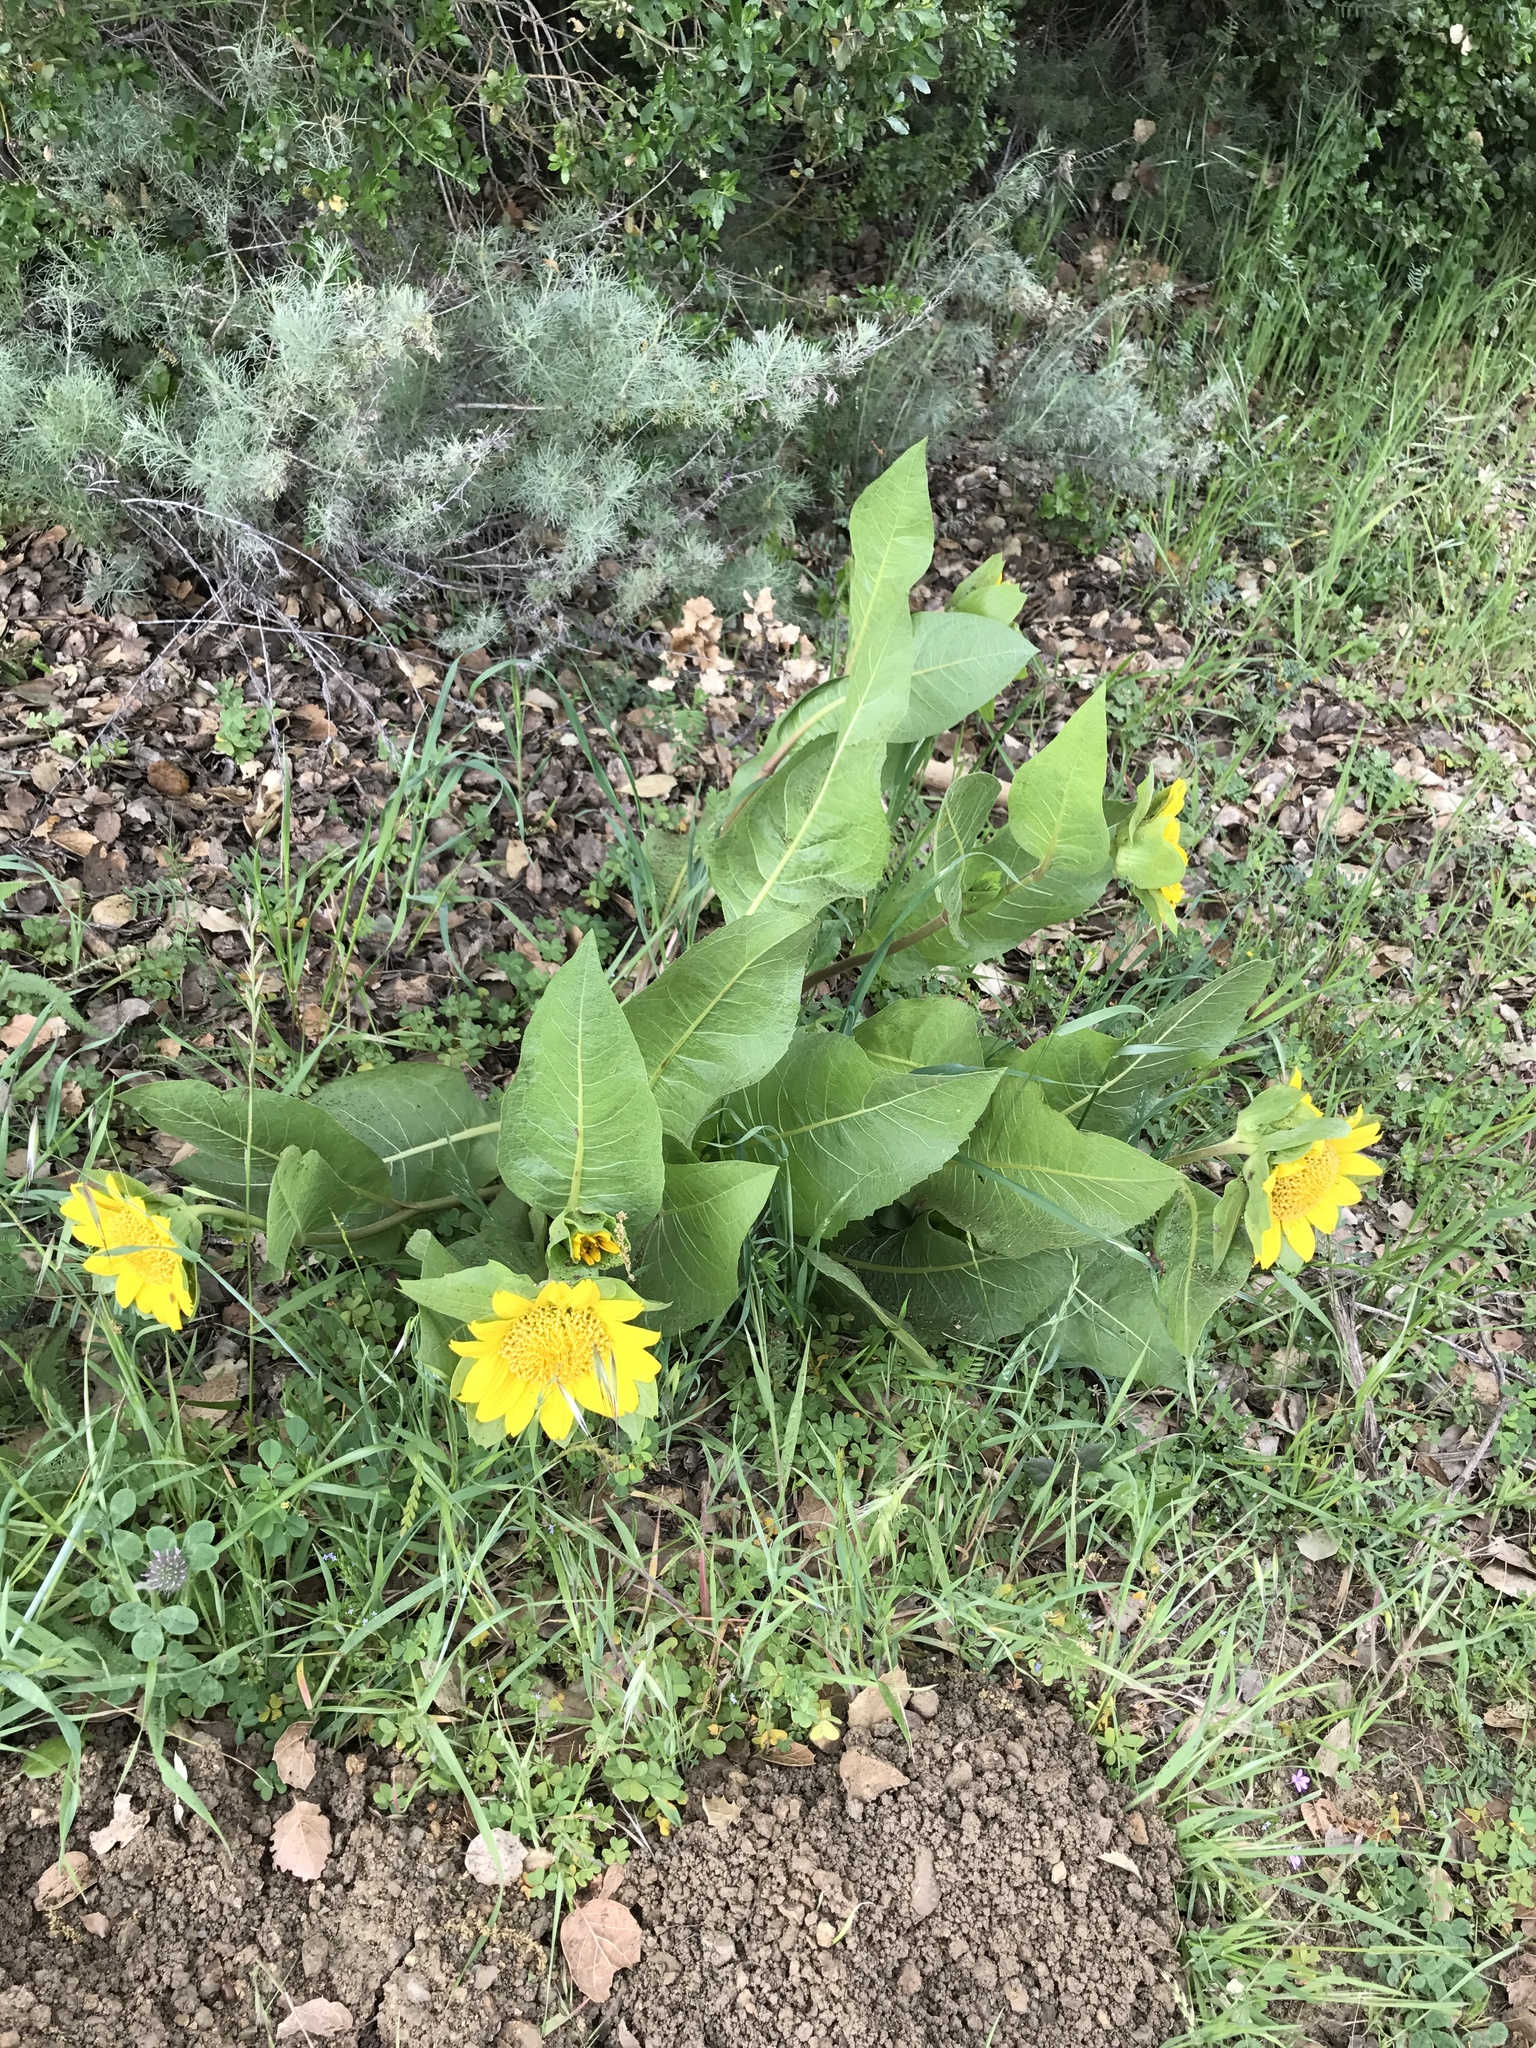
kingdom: Plantae
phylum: Tracheophyta
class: Magnoliopsida
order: Asterales
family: Asteraceae
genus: Wyethia
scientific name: Wyethia glabra
